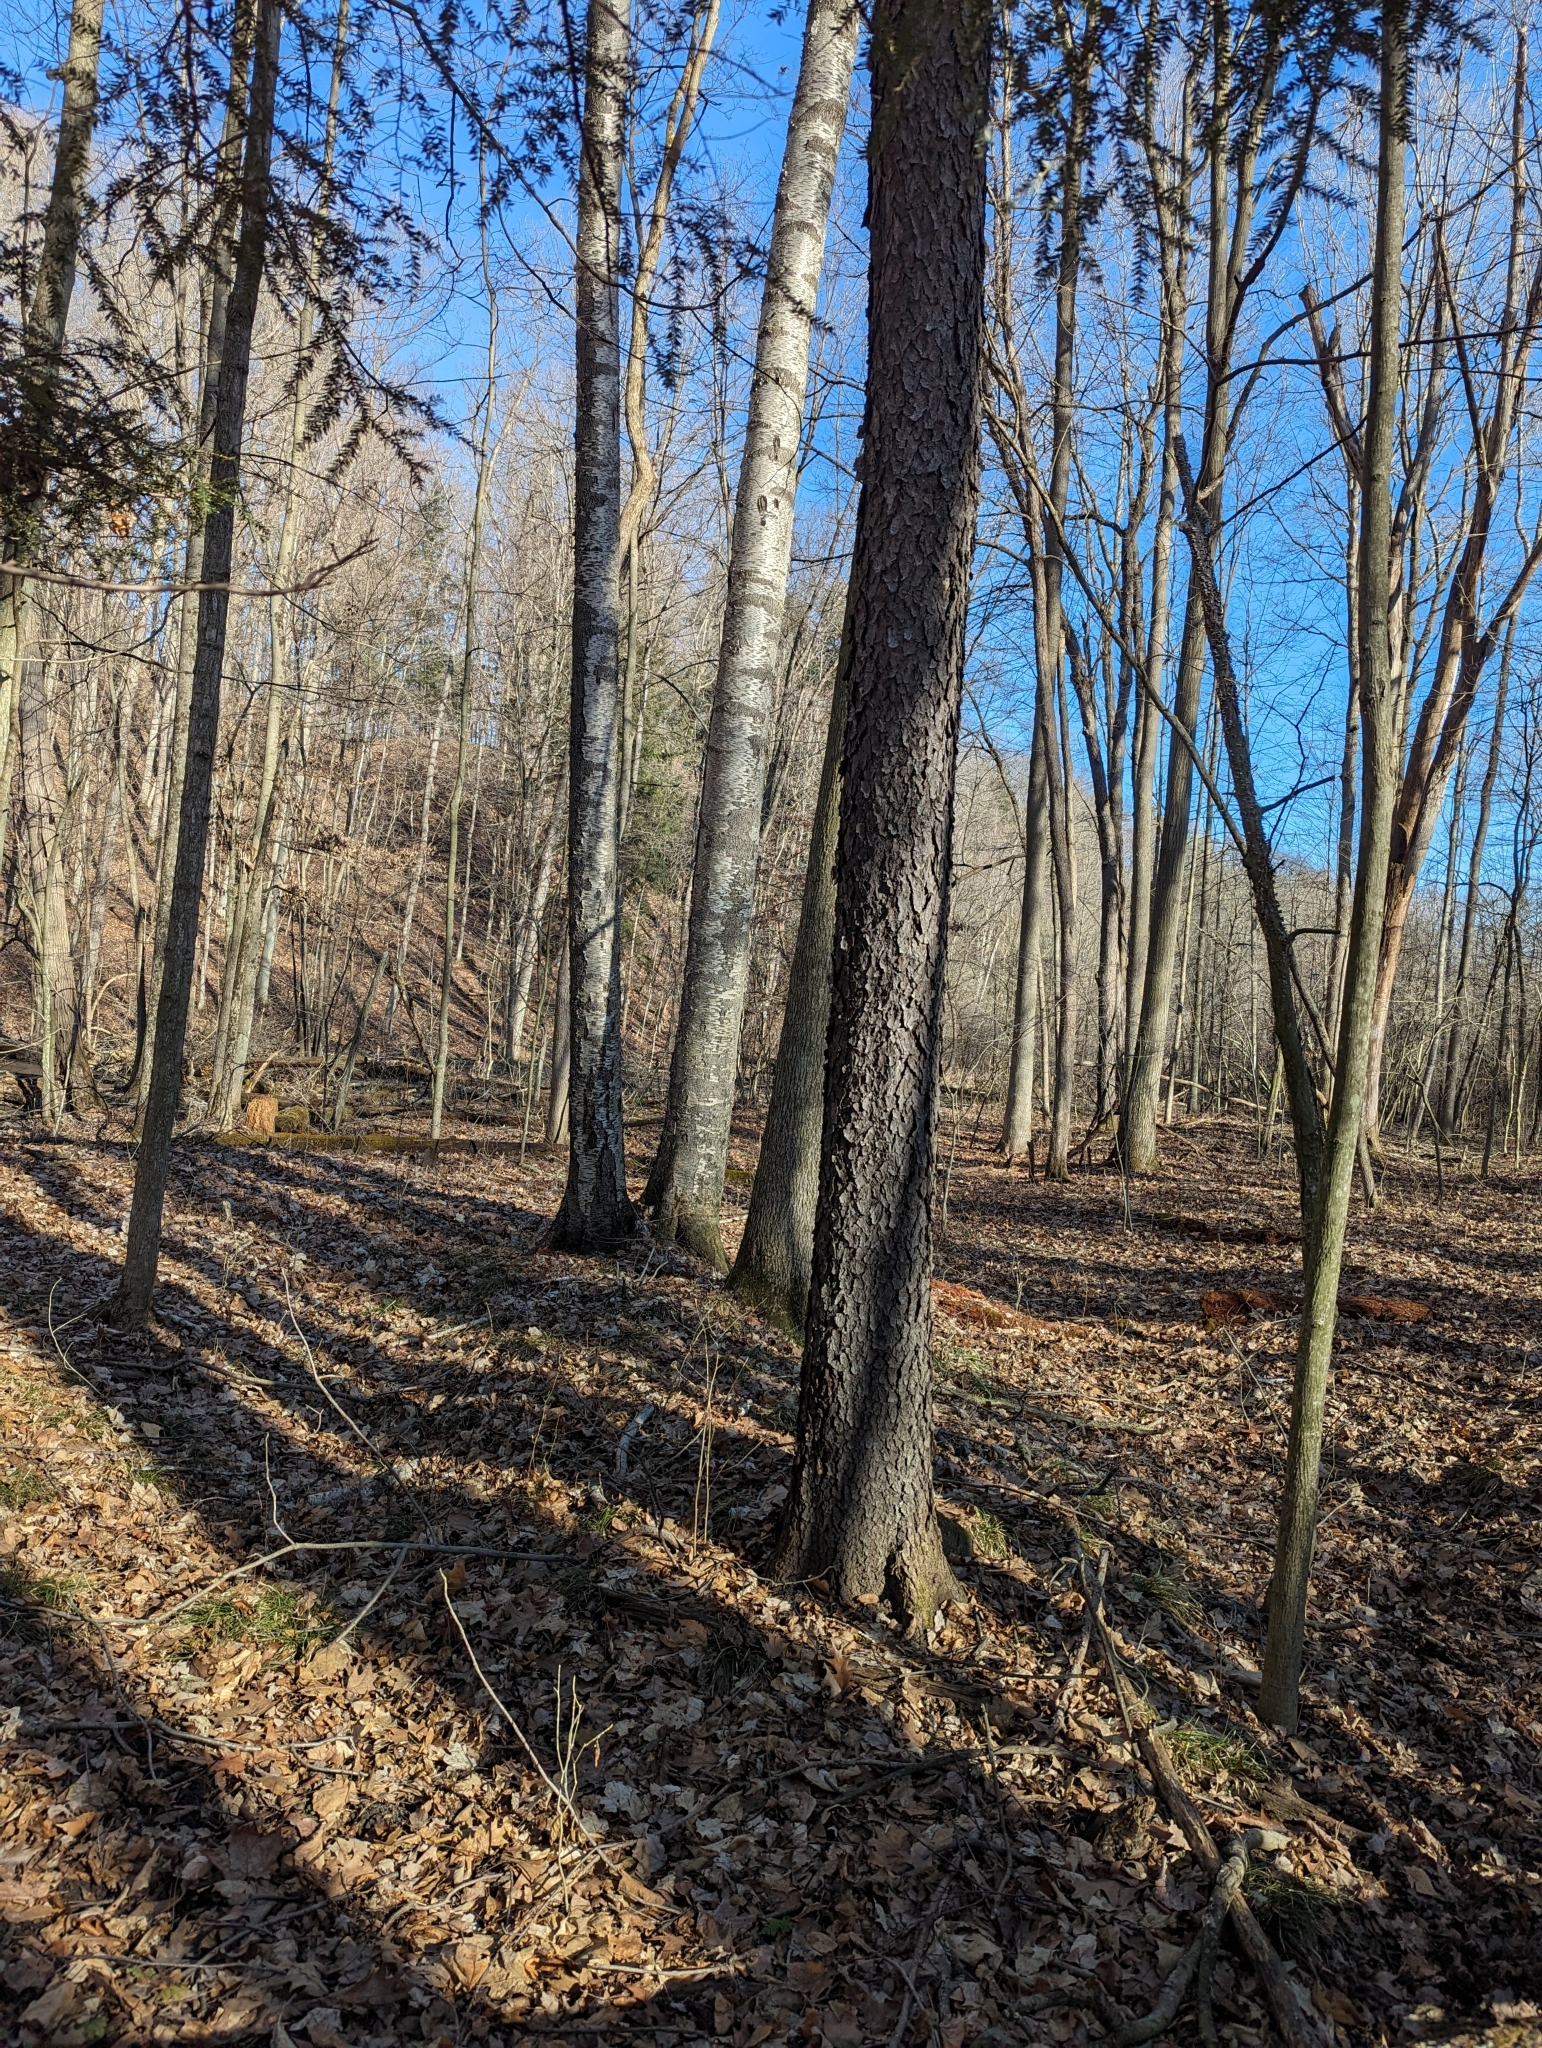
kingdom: Plantae
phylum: Tracheophyta
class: Magnoliopsida
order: Rosales
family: Rosaceae
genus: Prunus
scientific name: Prunus serotina
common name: Black cherry
